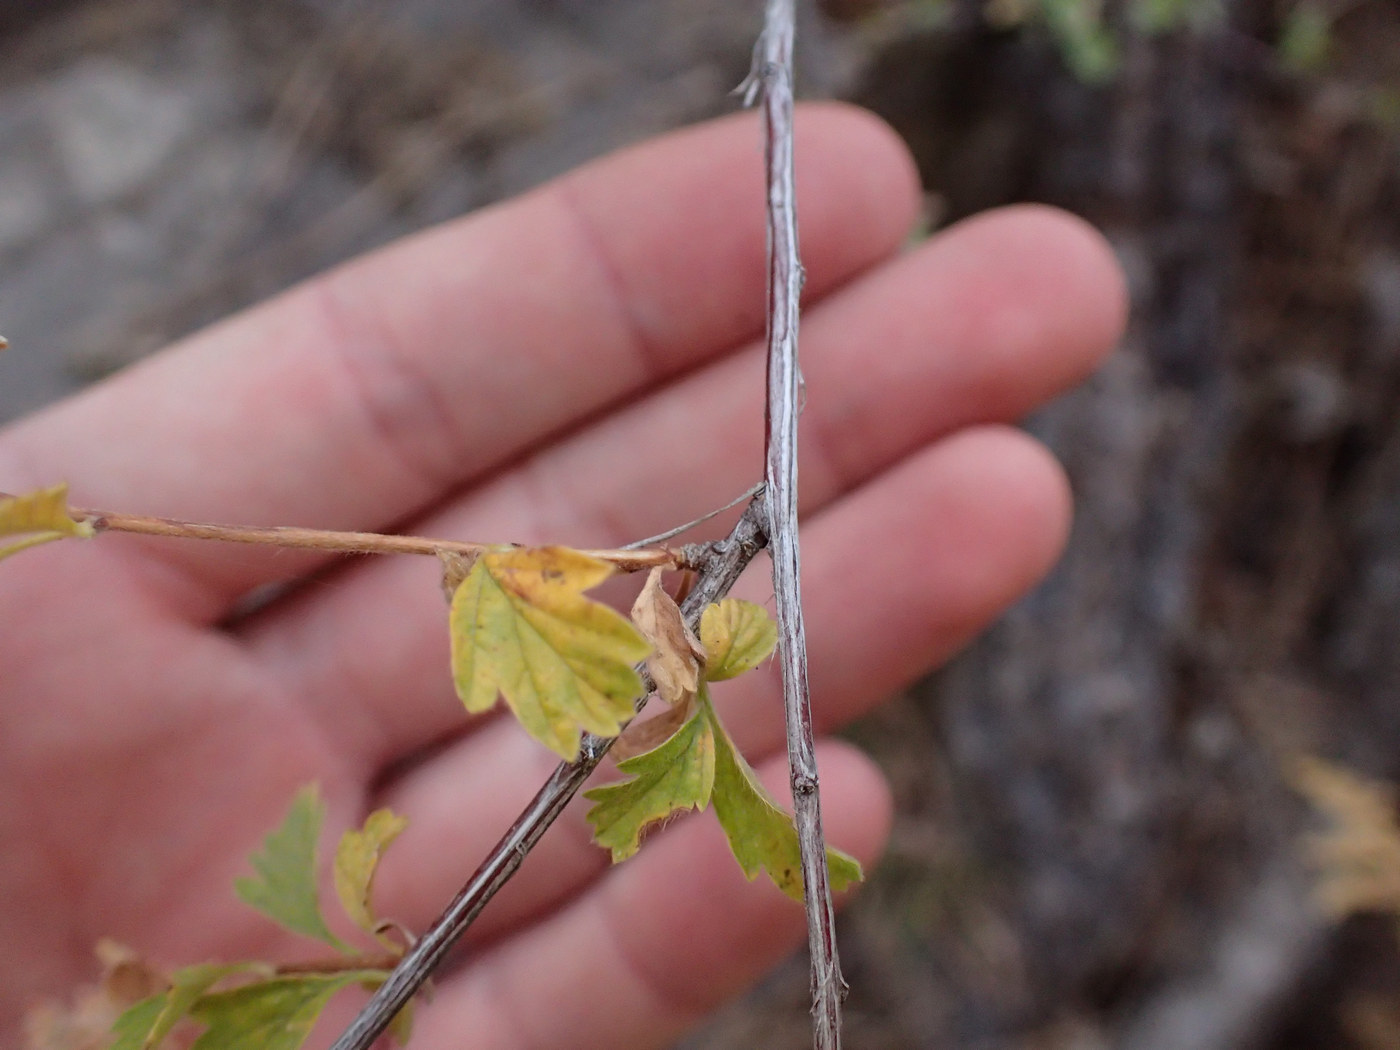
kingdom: Plantae
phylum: Tracheophyta
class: Magnoliopsida
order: Rosales
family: Rosaceae
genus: Holodiscus
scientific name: Holodiscus discolor
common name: Oceanspray
